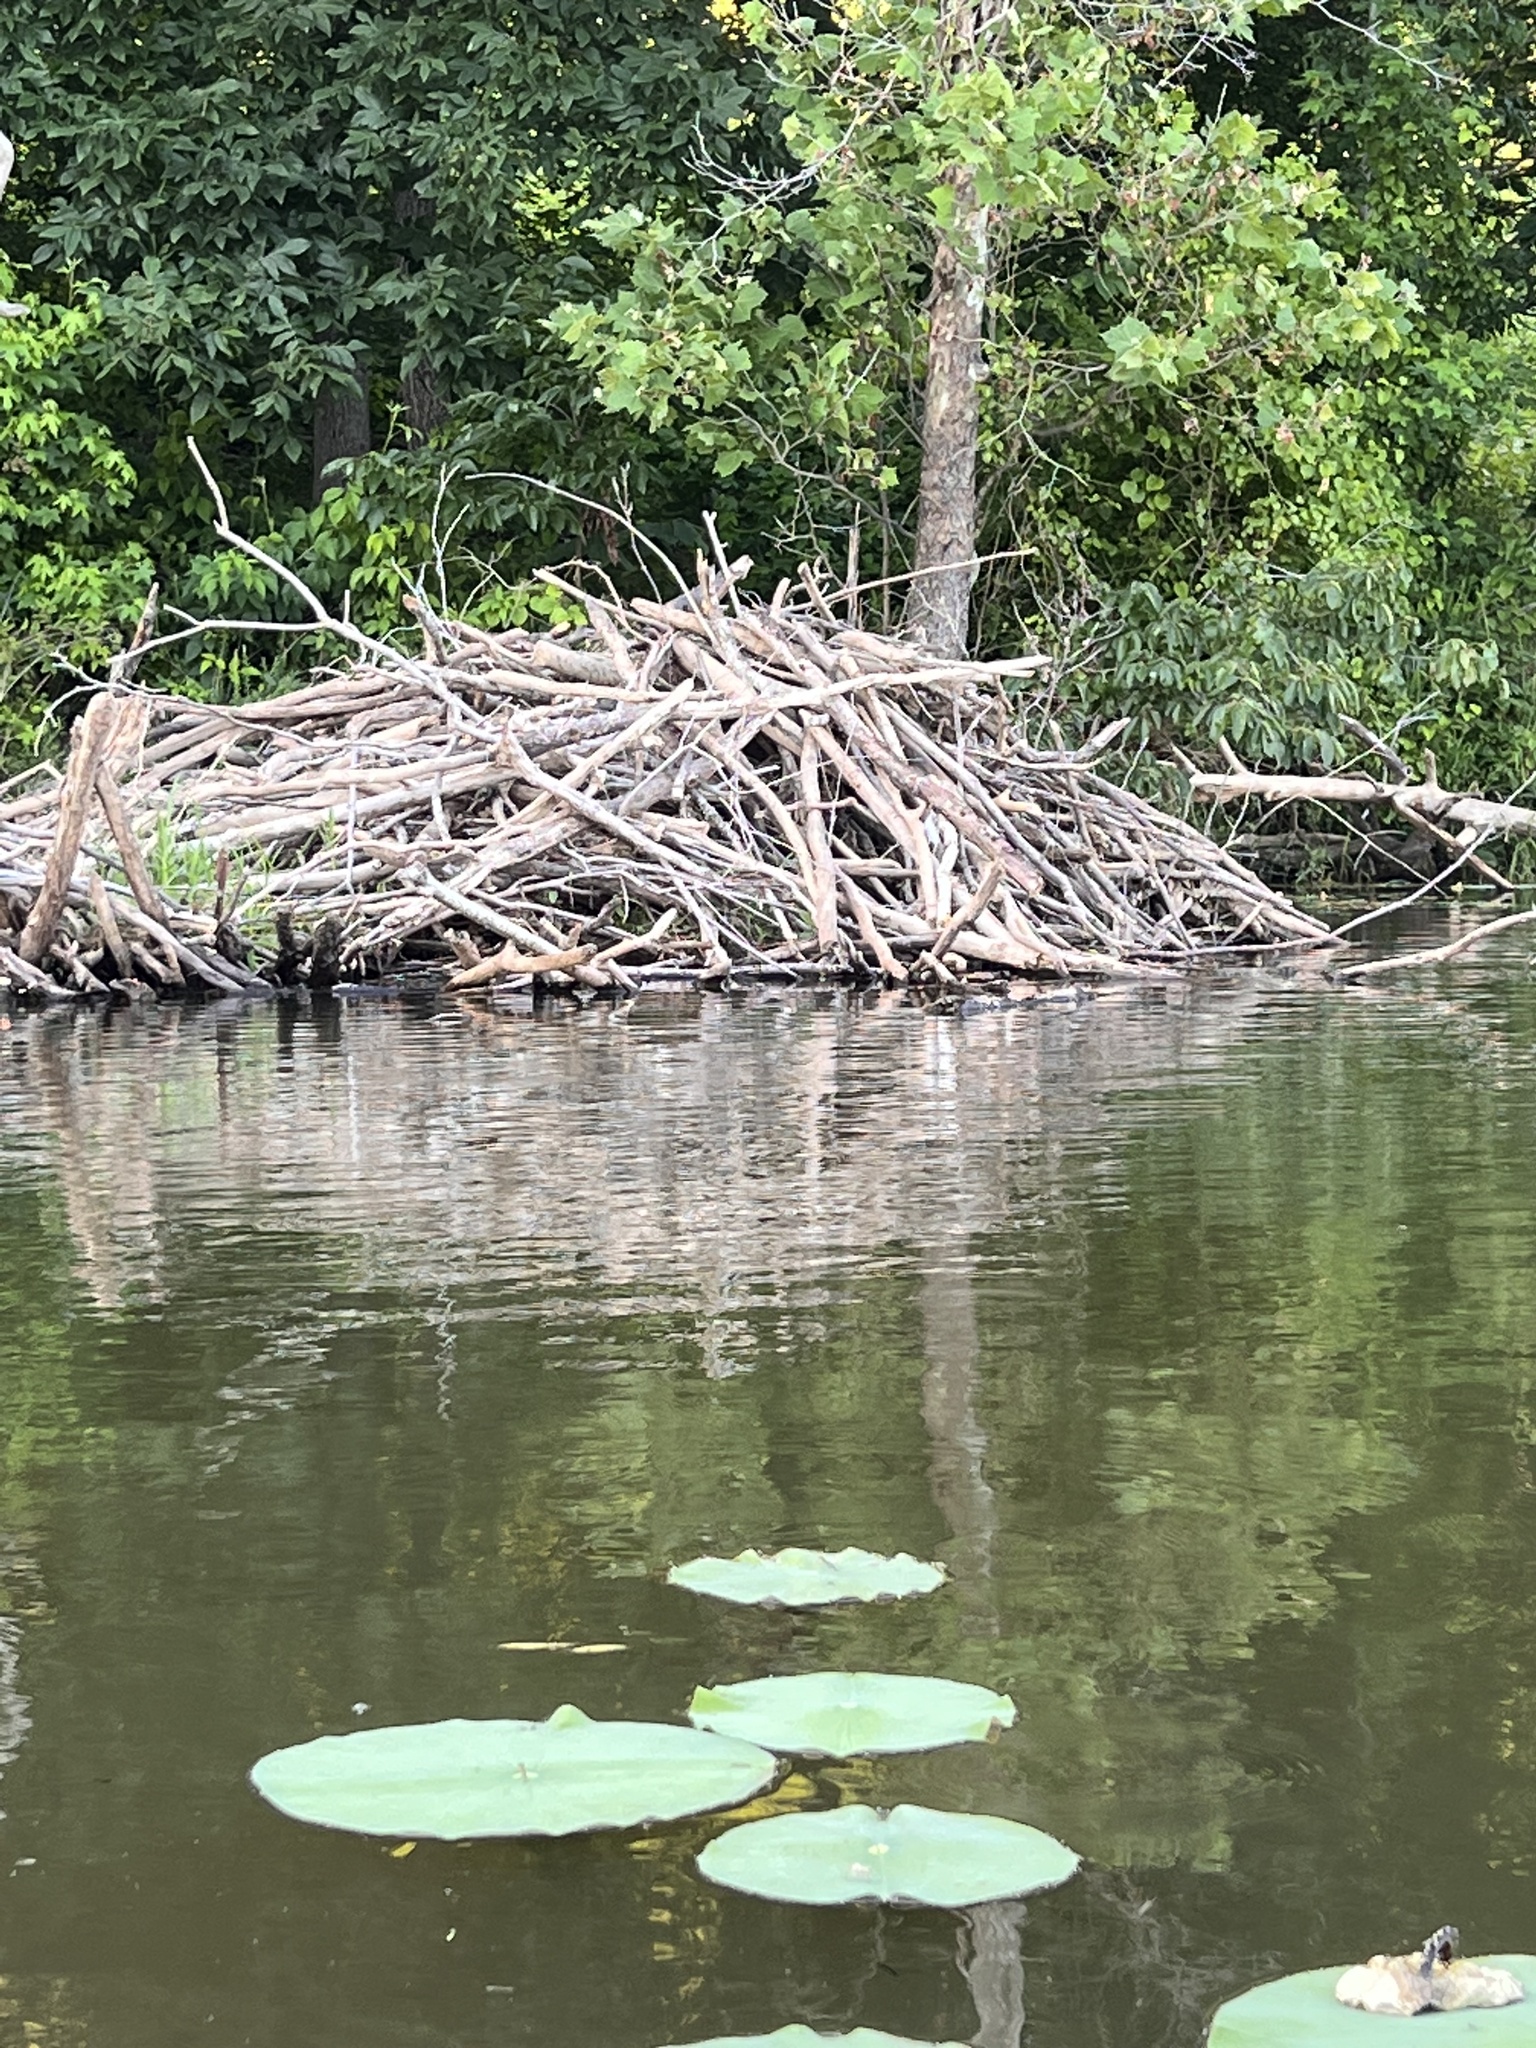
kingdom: Animalia
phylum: Chordata
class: Mammalia
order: Rodentia
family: Castoridae
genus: Castor
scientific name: Castor canadensis
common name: American beaver
